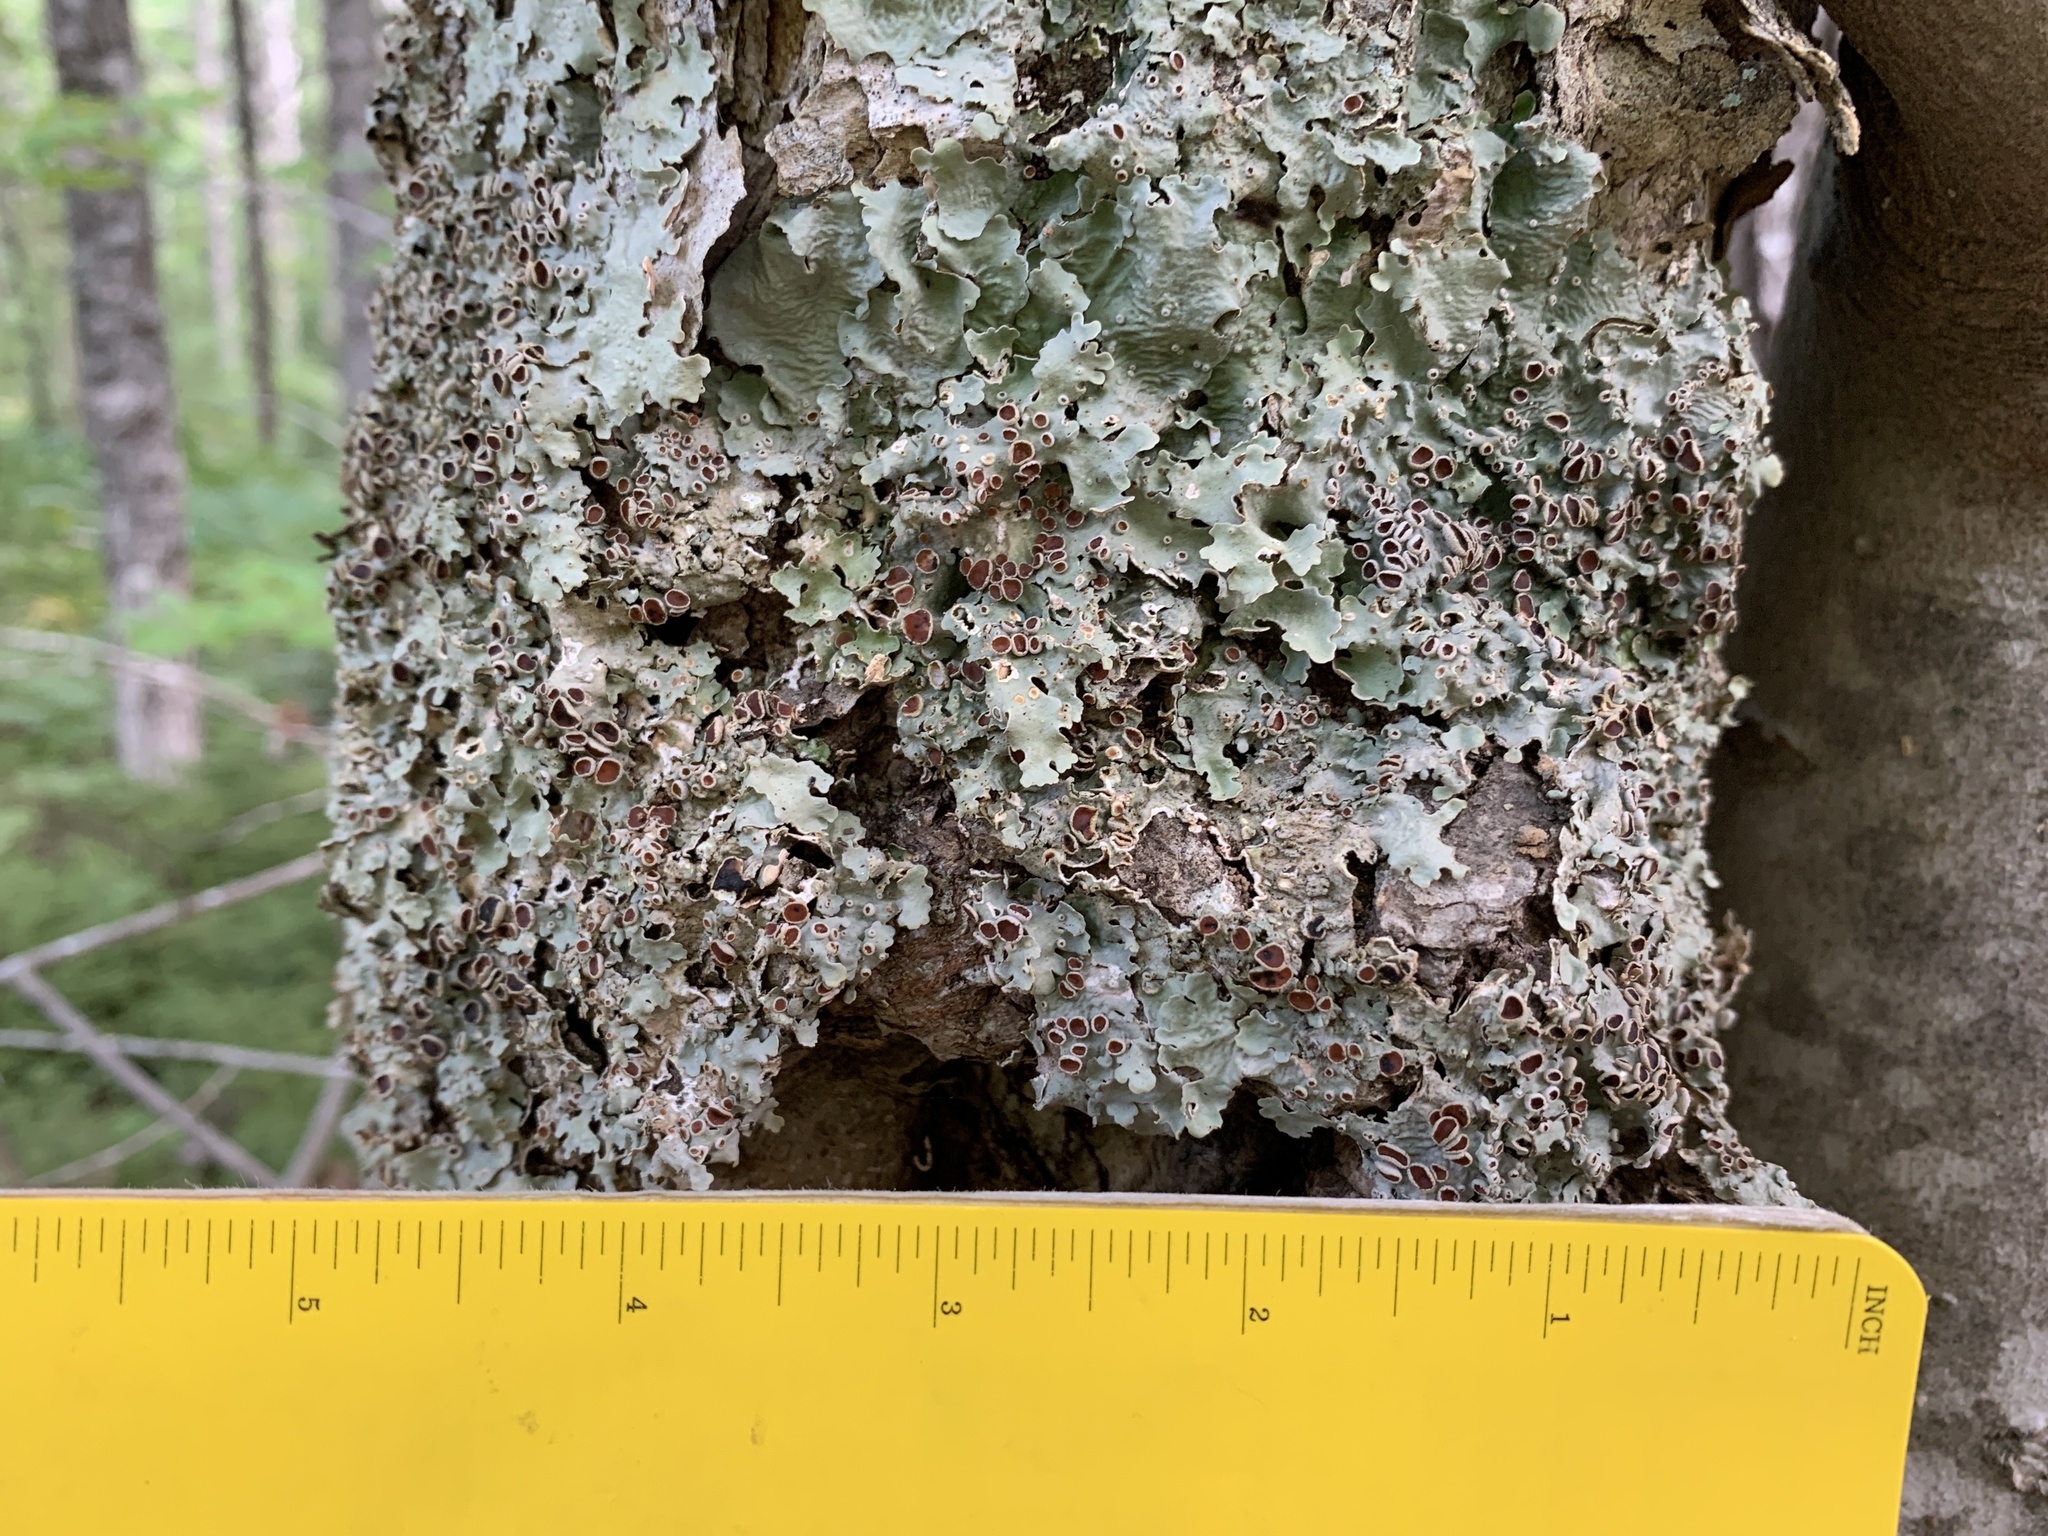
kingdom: Fungi
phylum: Ascomycota
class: Lecanoromycetes
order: Peltigerales
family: Lobariaceae
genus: Ricasolia
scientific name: Ricasolia quercizans
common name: Smooth lungwort
